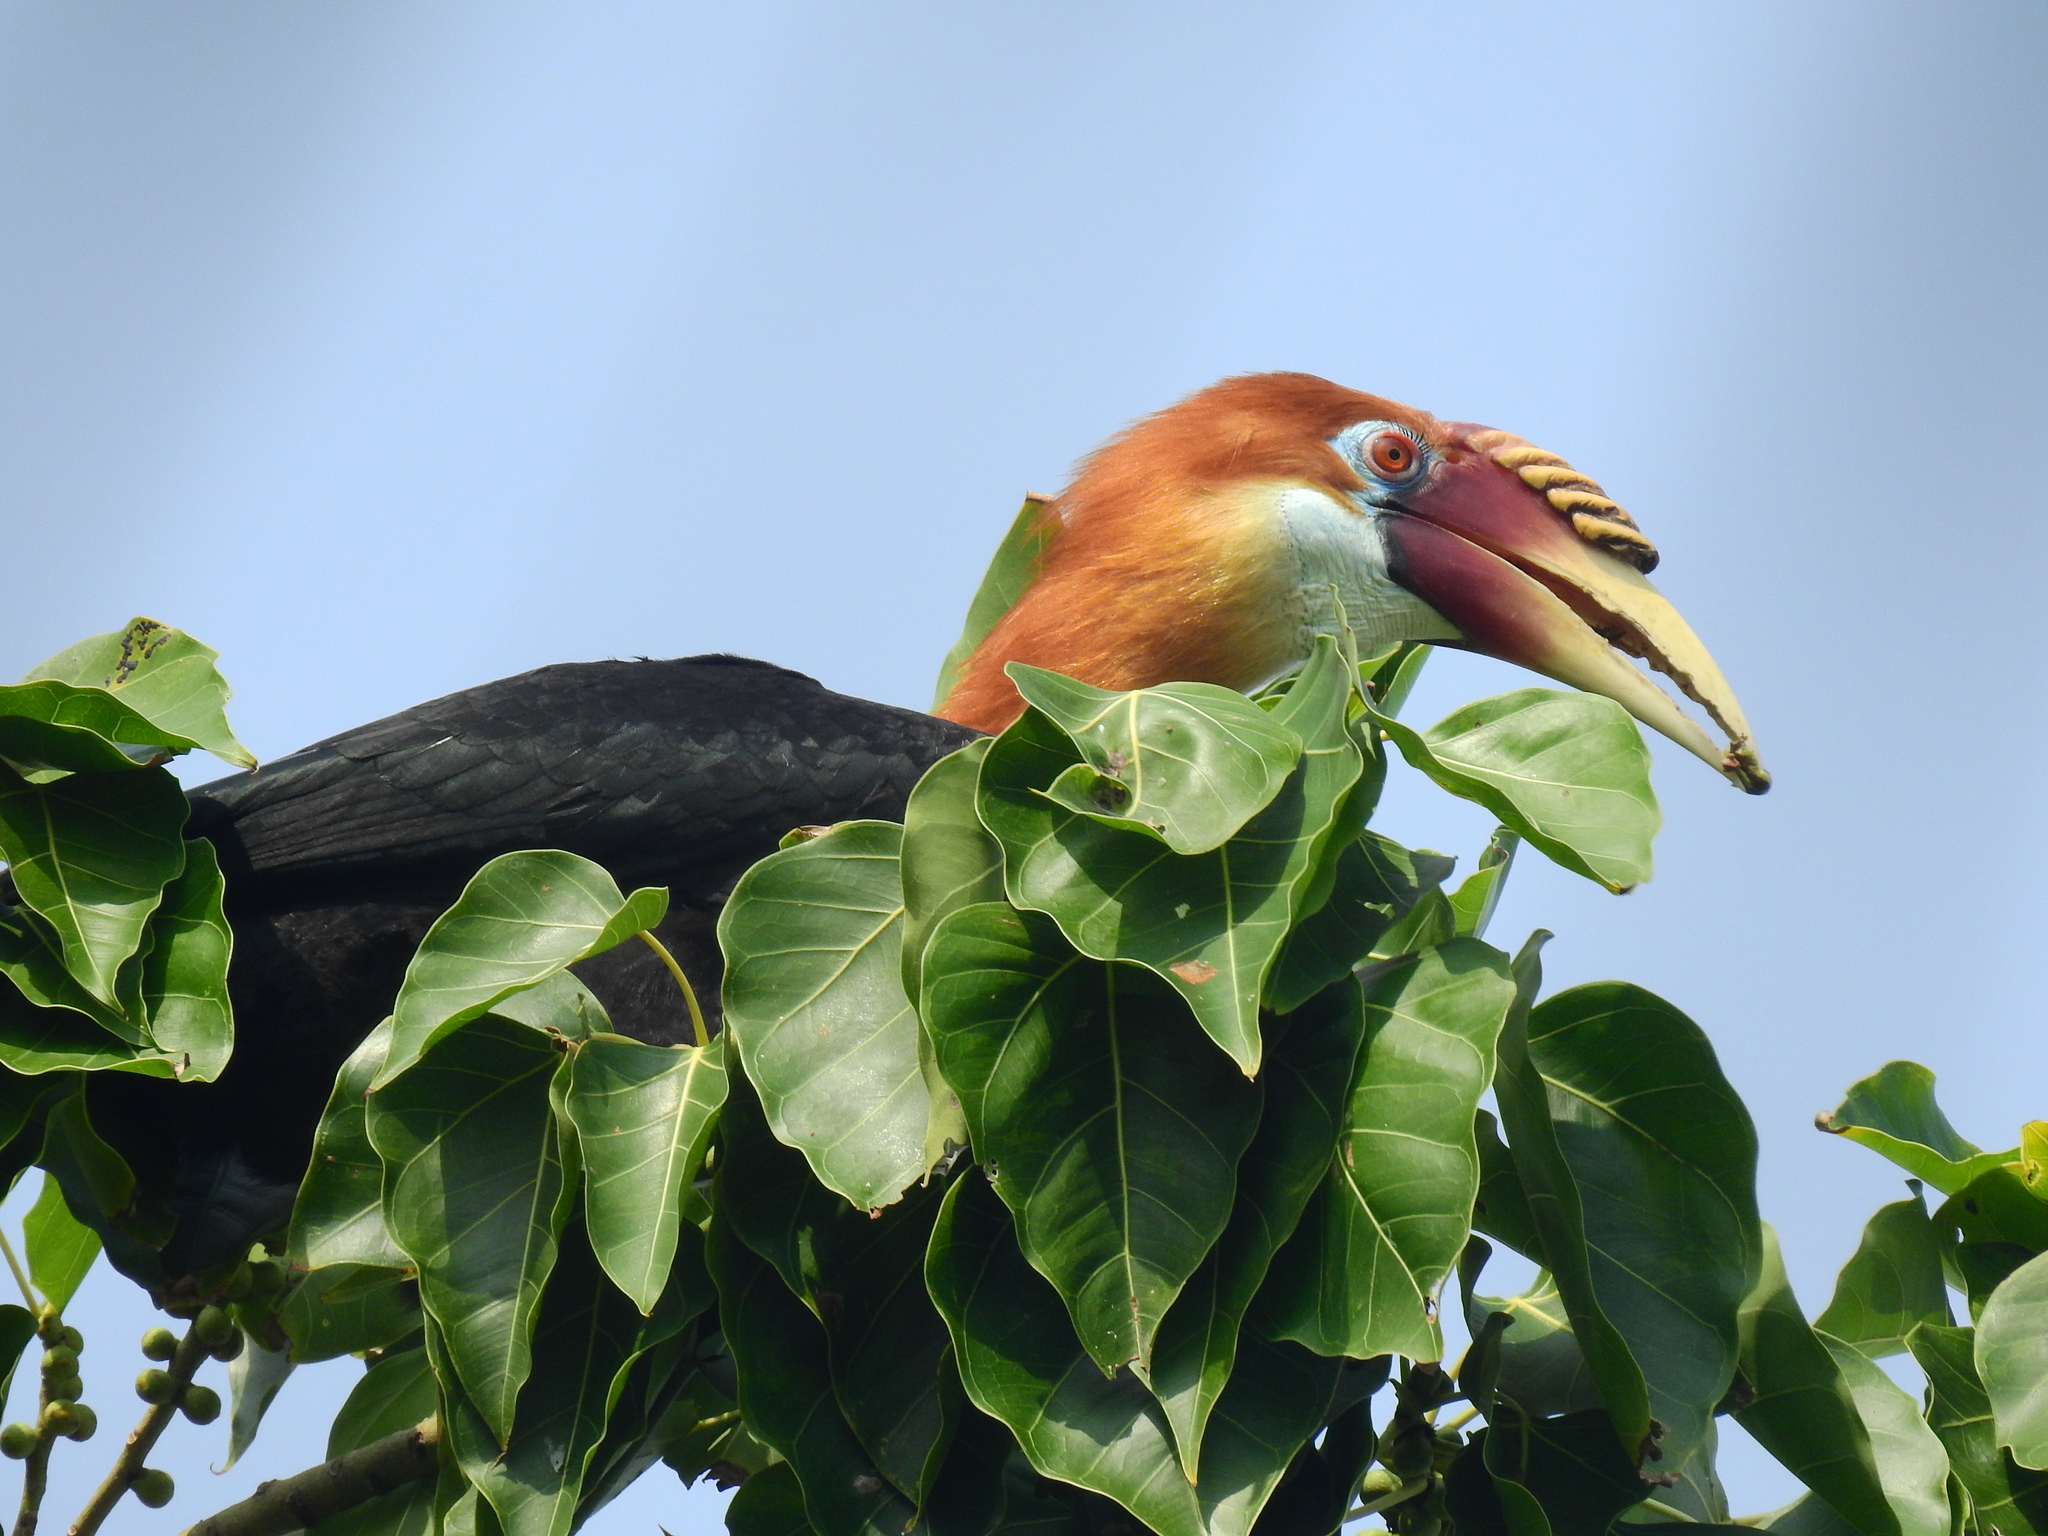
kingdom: Animalia
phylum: Chordata
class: Aves
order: Bucerotiformes
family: Bucerotidae
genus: Rhyticeros
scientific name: Rhyticeros narcondami
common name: Narcondam hornbill
